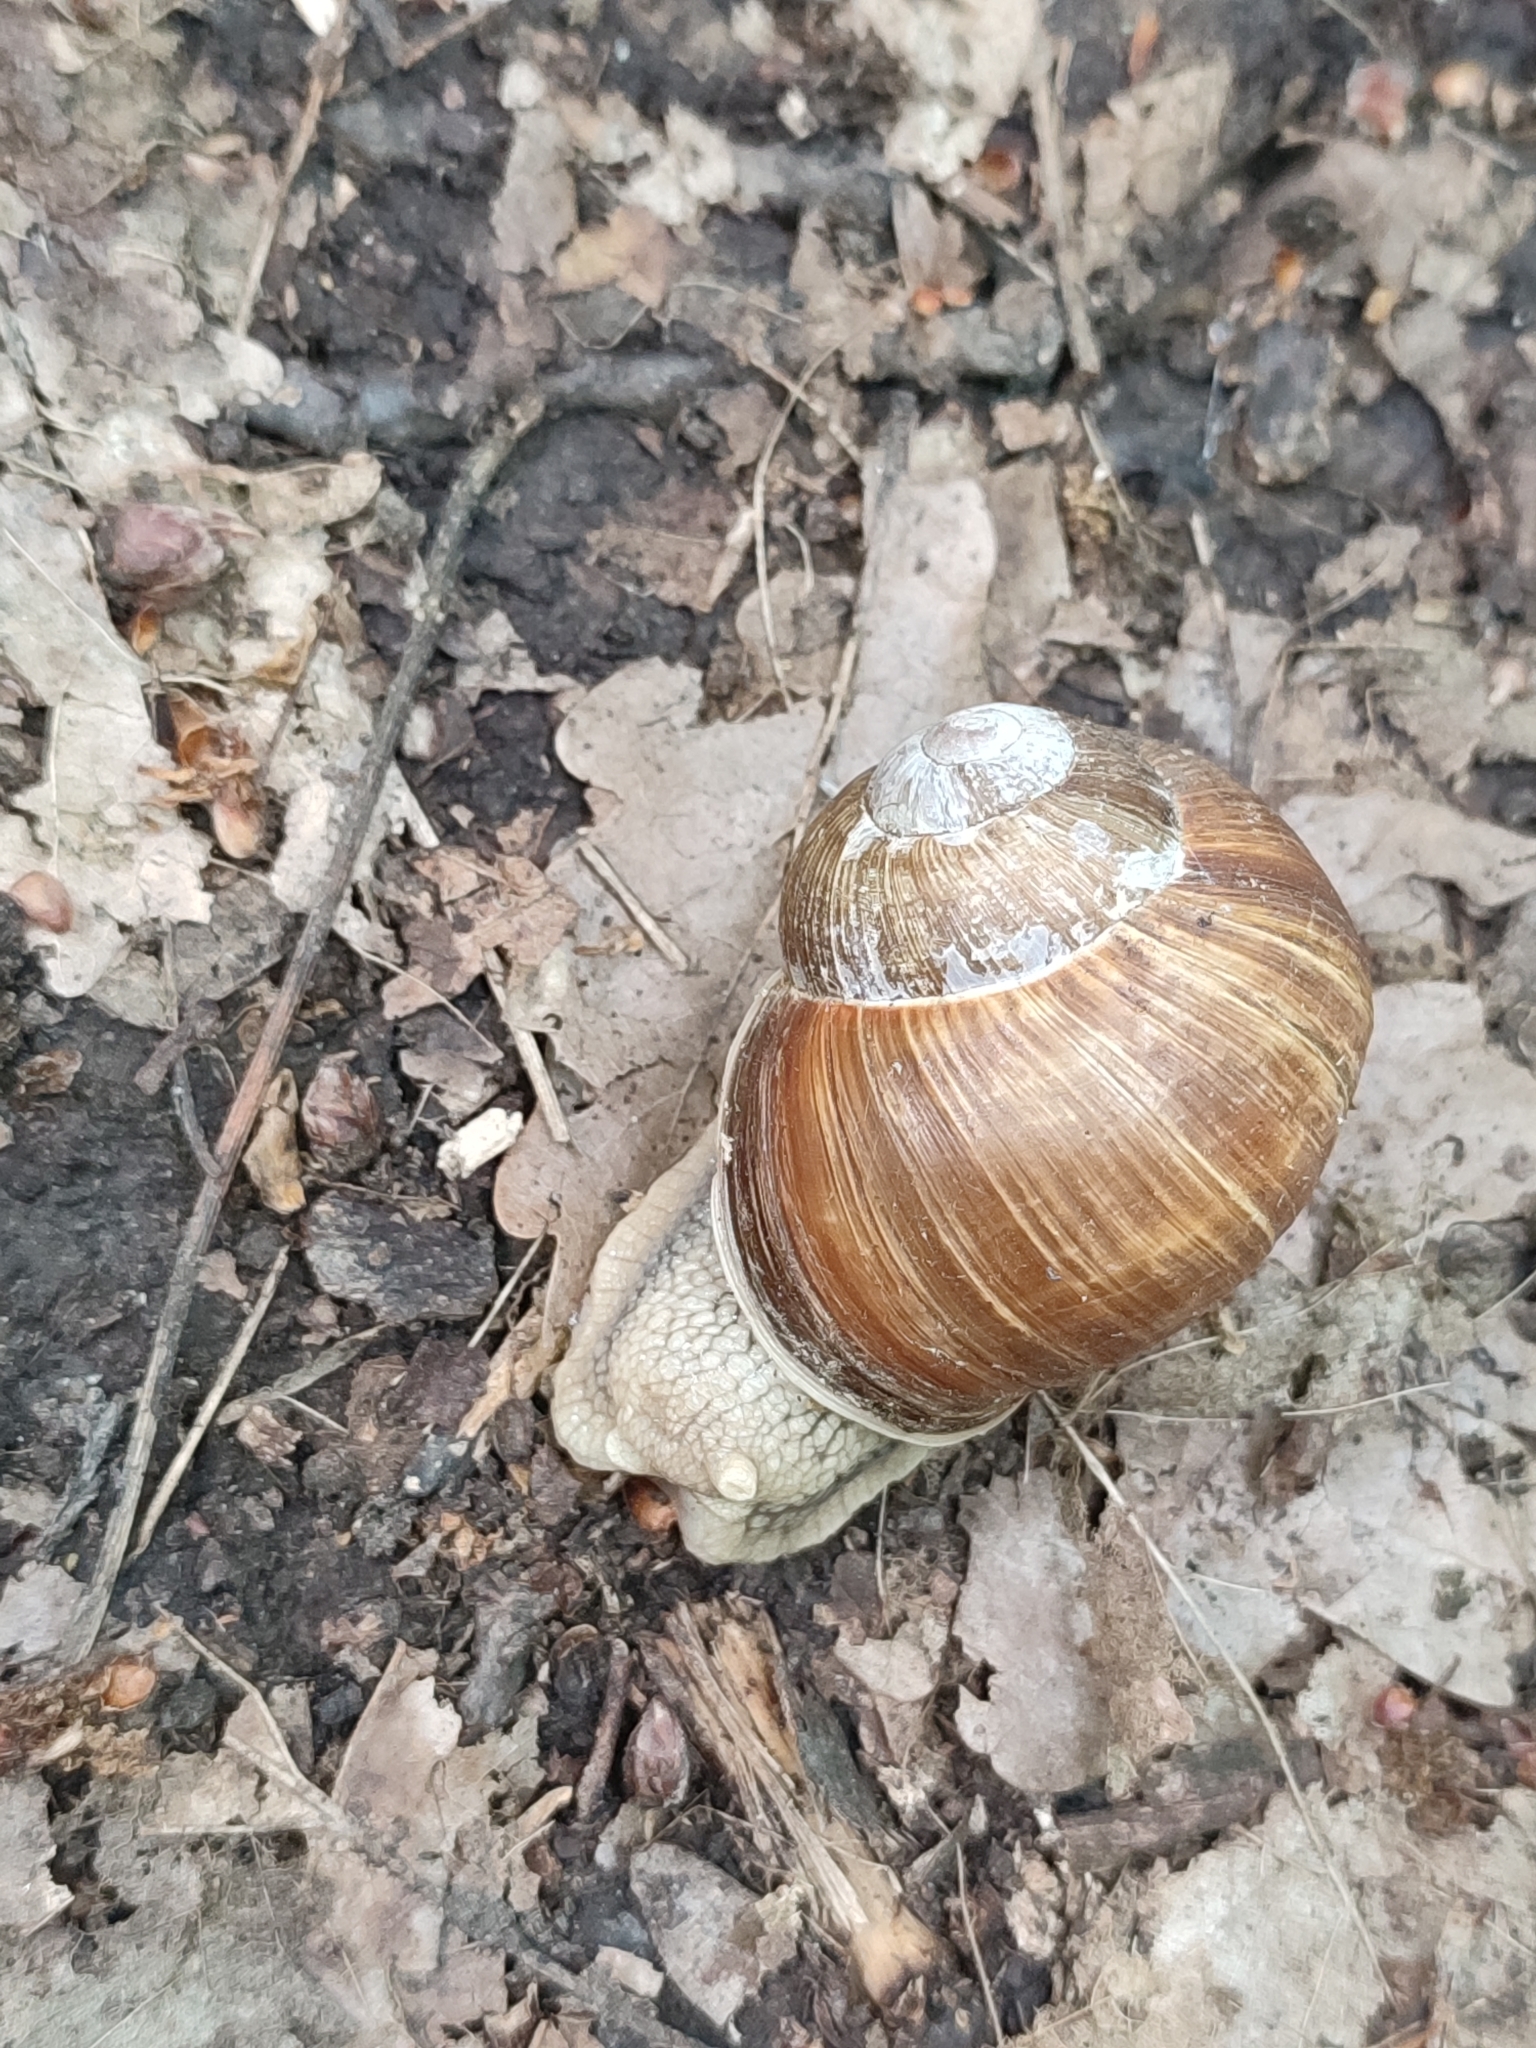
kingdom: Animalia
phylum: Mollusca
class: Gastropoda
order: Stylommatophora
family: Helicidae
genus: Helix
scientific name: Helix pomatia
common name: Roman snail
